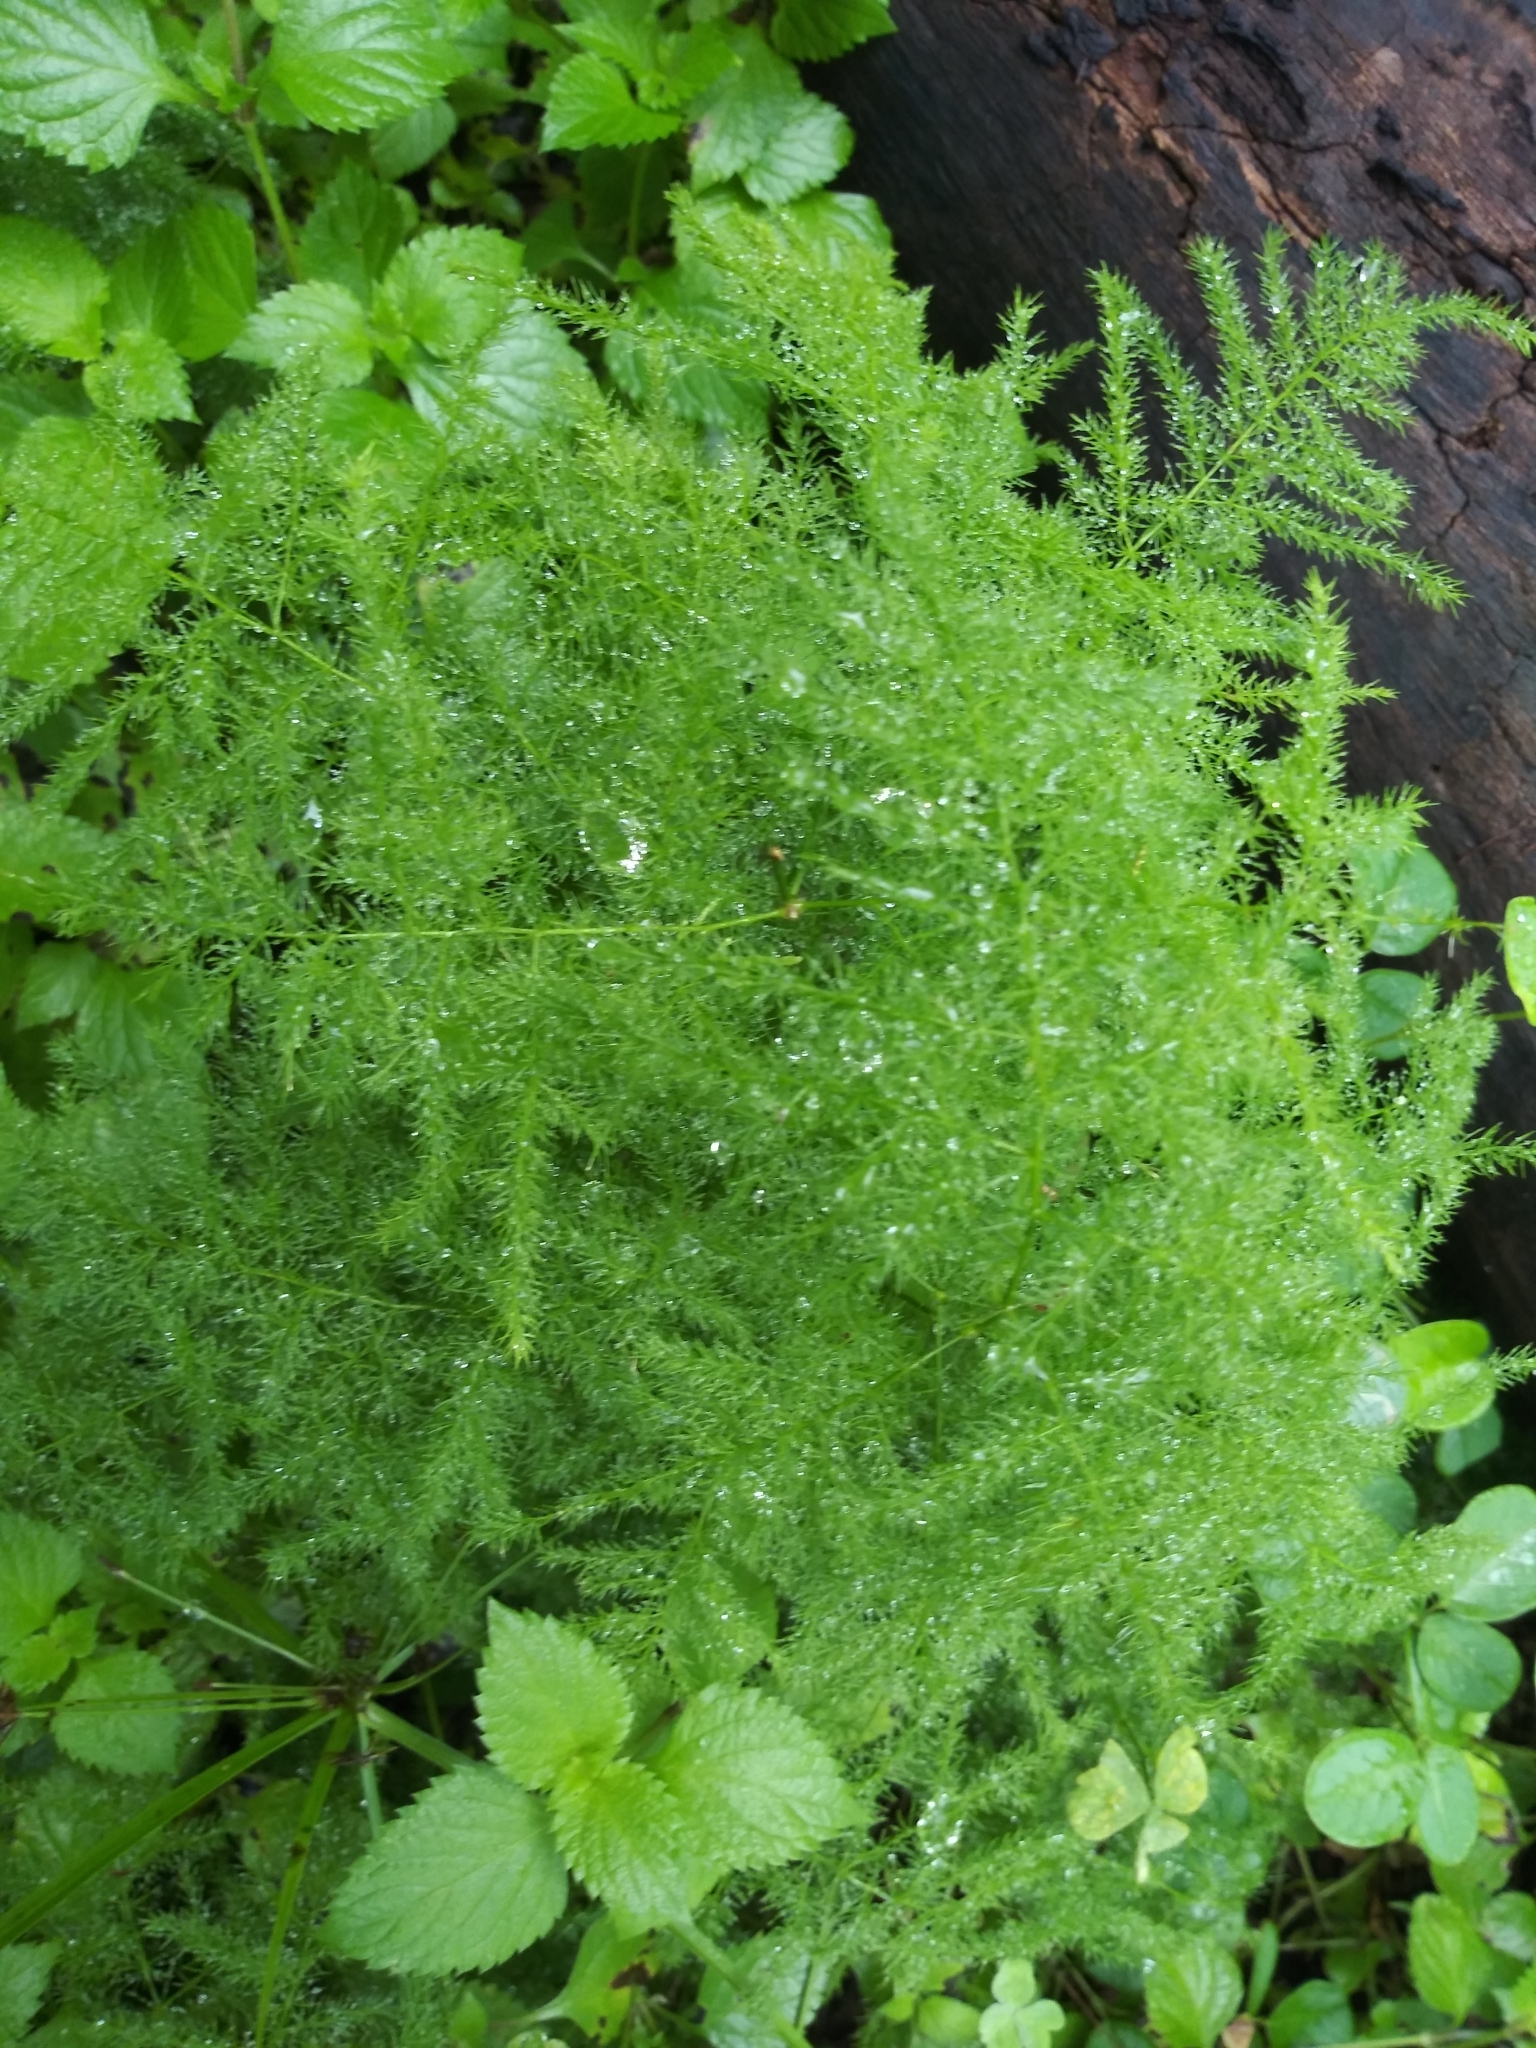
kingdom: Plantae
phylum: Tracheophyta
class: Liliopsida
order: Asparagales
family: Asparagaceae
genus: Asparagus
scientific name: Asparagus setaceus
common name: Common asparagus fern
